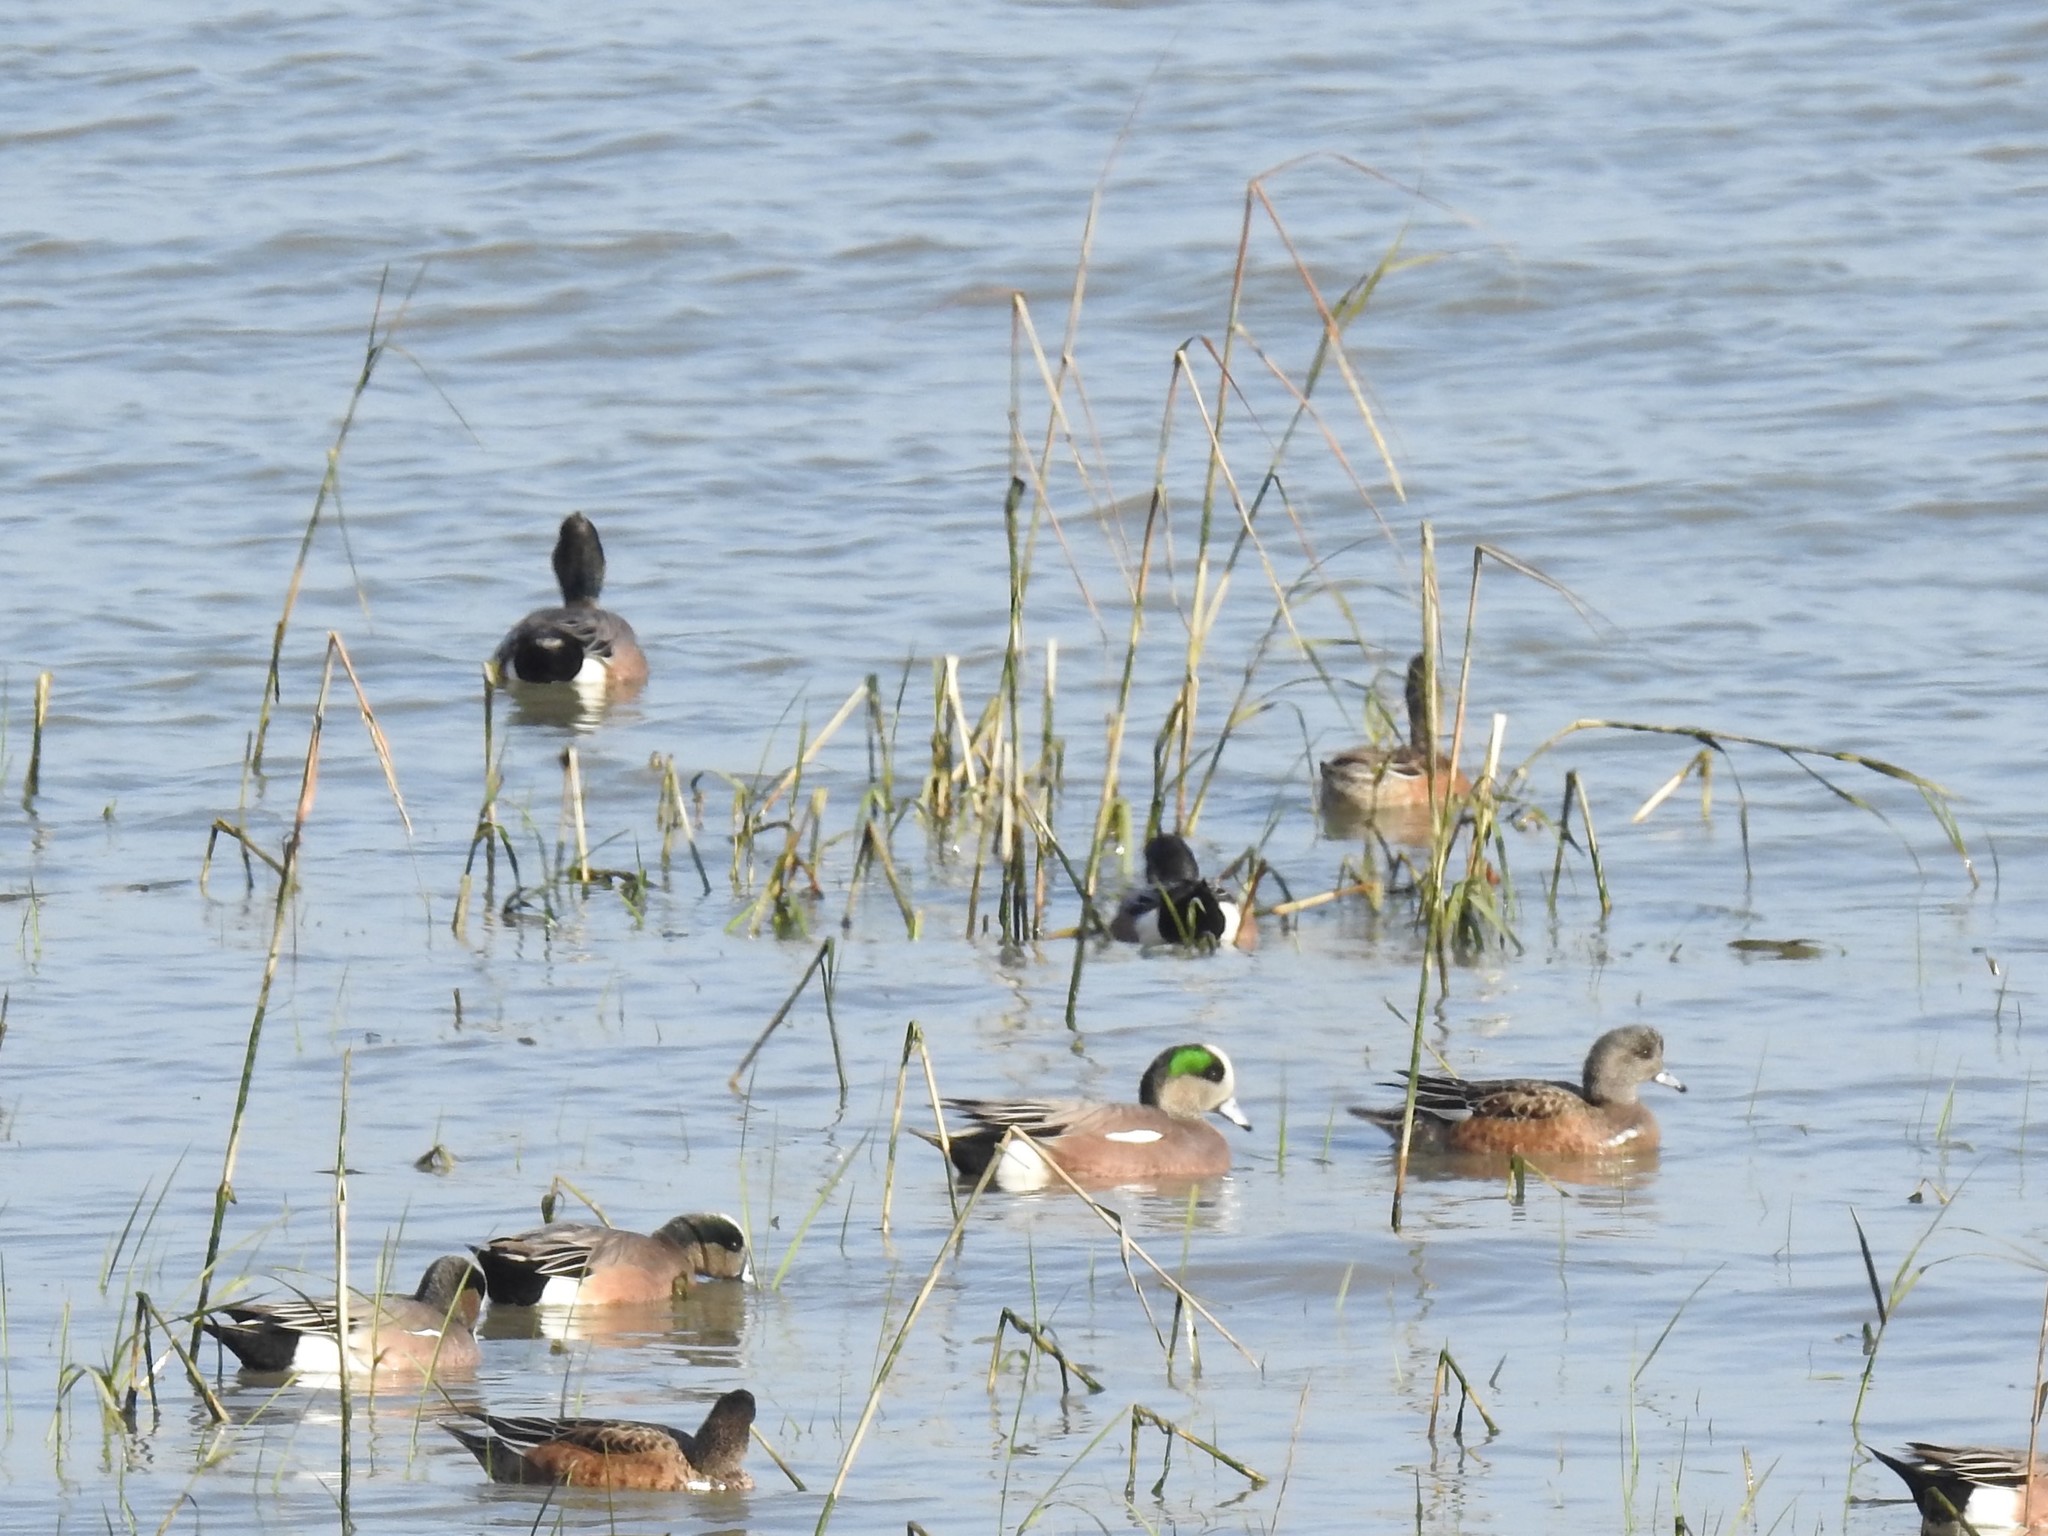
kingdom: Animalia
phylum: Chordata
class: Aves
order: Anseriformes
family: Anatidae
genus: Mareca
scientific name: Mareca americana
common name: American wigeon
